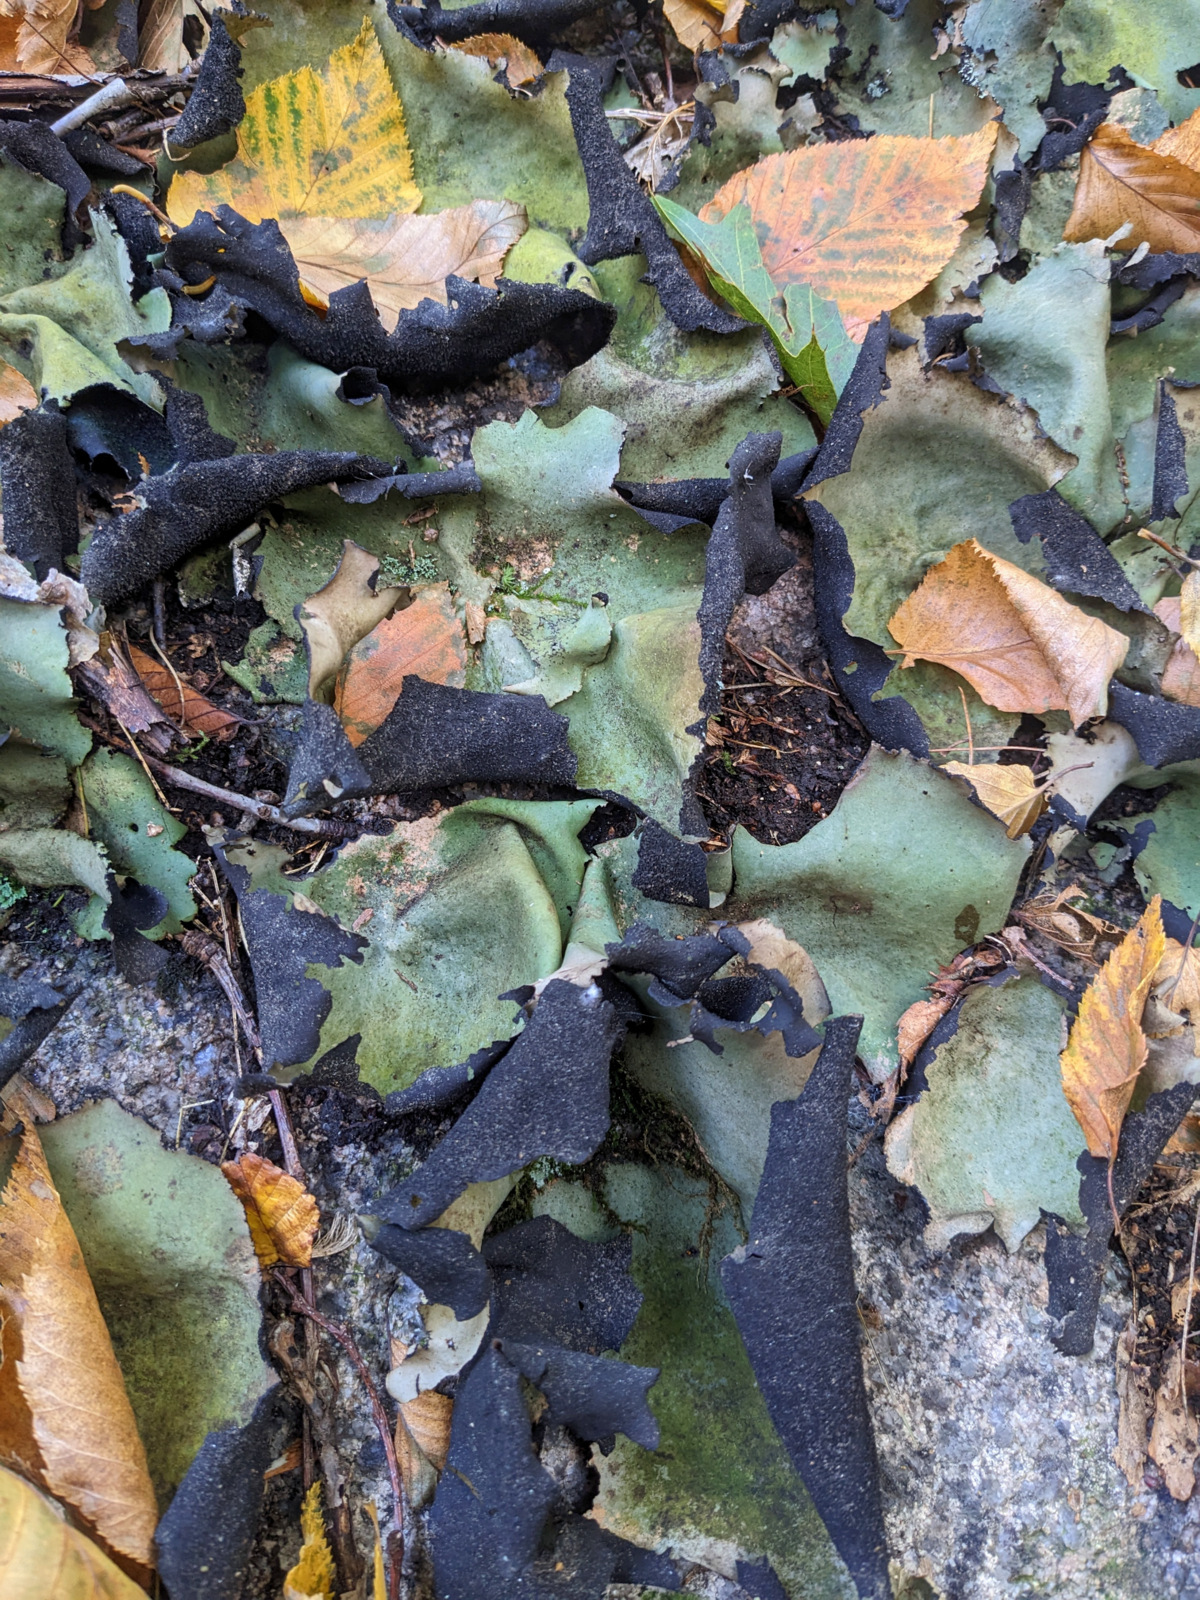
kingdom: Fungi
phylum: Ascomycota
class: Lecanoromycetes
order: Umbilicariales
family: Umbilicariaceae
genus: Umbilicaria
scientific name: Umbilicaria mammulata
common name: Smooth rock tripe
